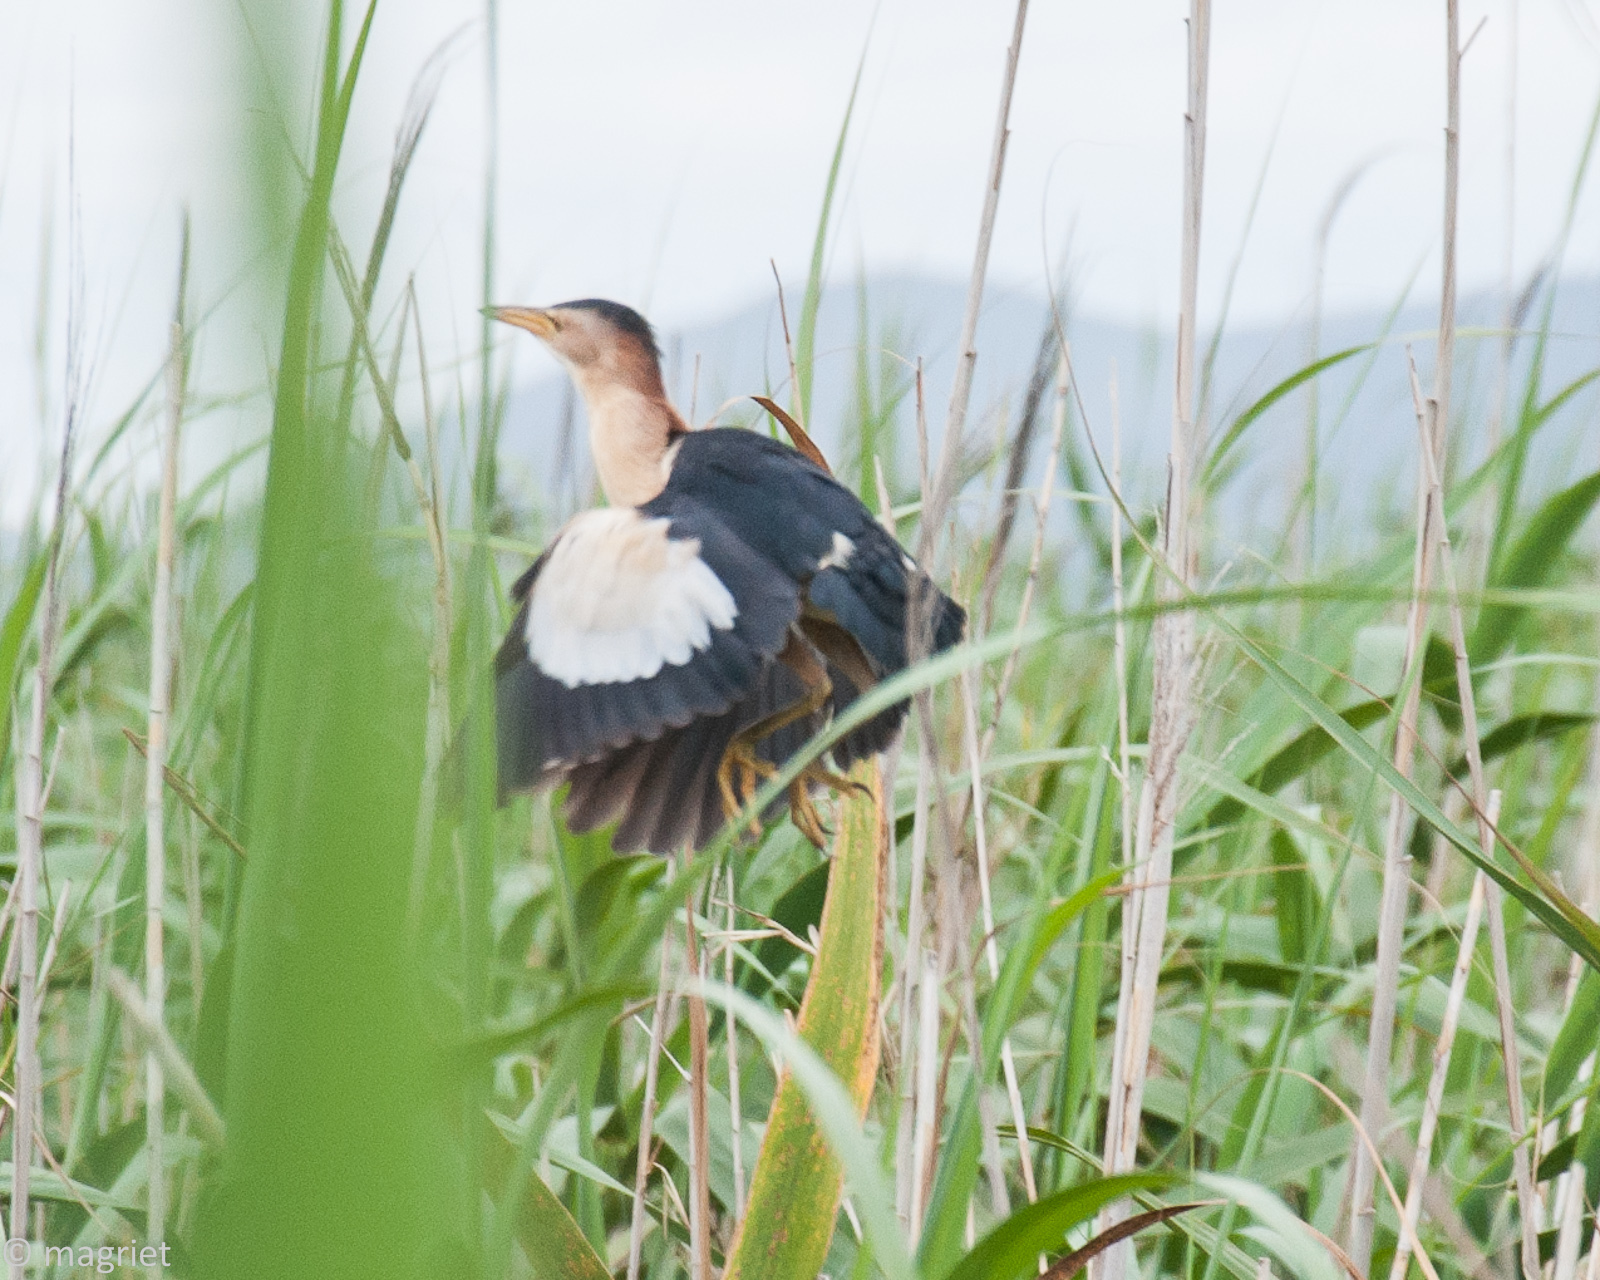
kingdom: Animalia
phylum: Chordata
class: Aves
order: Pelecaniformes
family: Ardeidae
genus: Ixobrychus
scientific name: Ixobrychus minutus
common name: Little bittern
